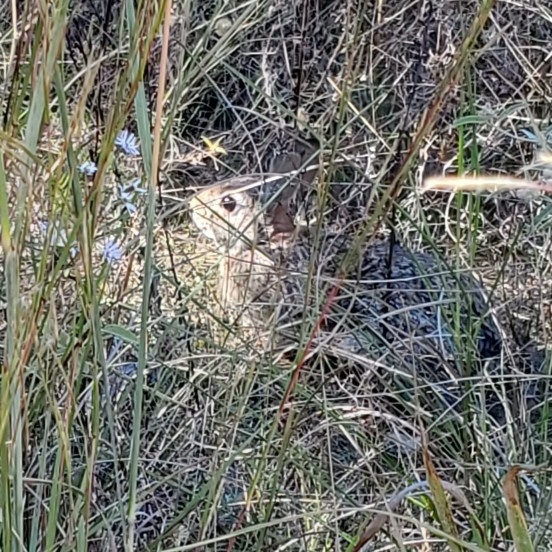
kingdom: Animalia
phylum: Chordata
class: Mammalia
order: Lagomorpha
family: Leporidae
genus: Sylvilagus
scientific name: Sylvilagus floridanus
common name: Eastern cottontail
